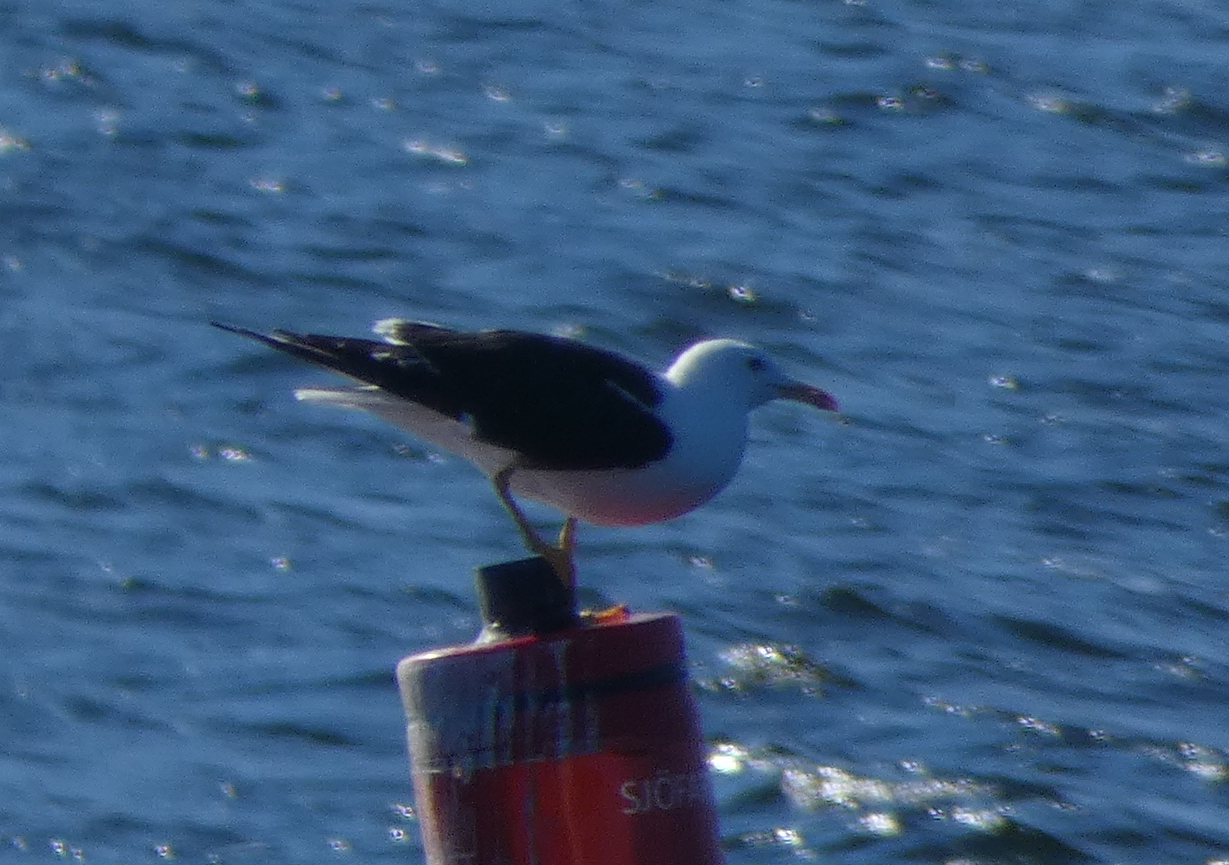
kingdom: Animalia
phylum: Chordata
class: Aves
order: Charadriiformes
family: Laridae
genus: Larus
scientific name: Larus fuscus
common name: Lesser black-backed gull
